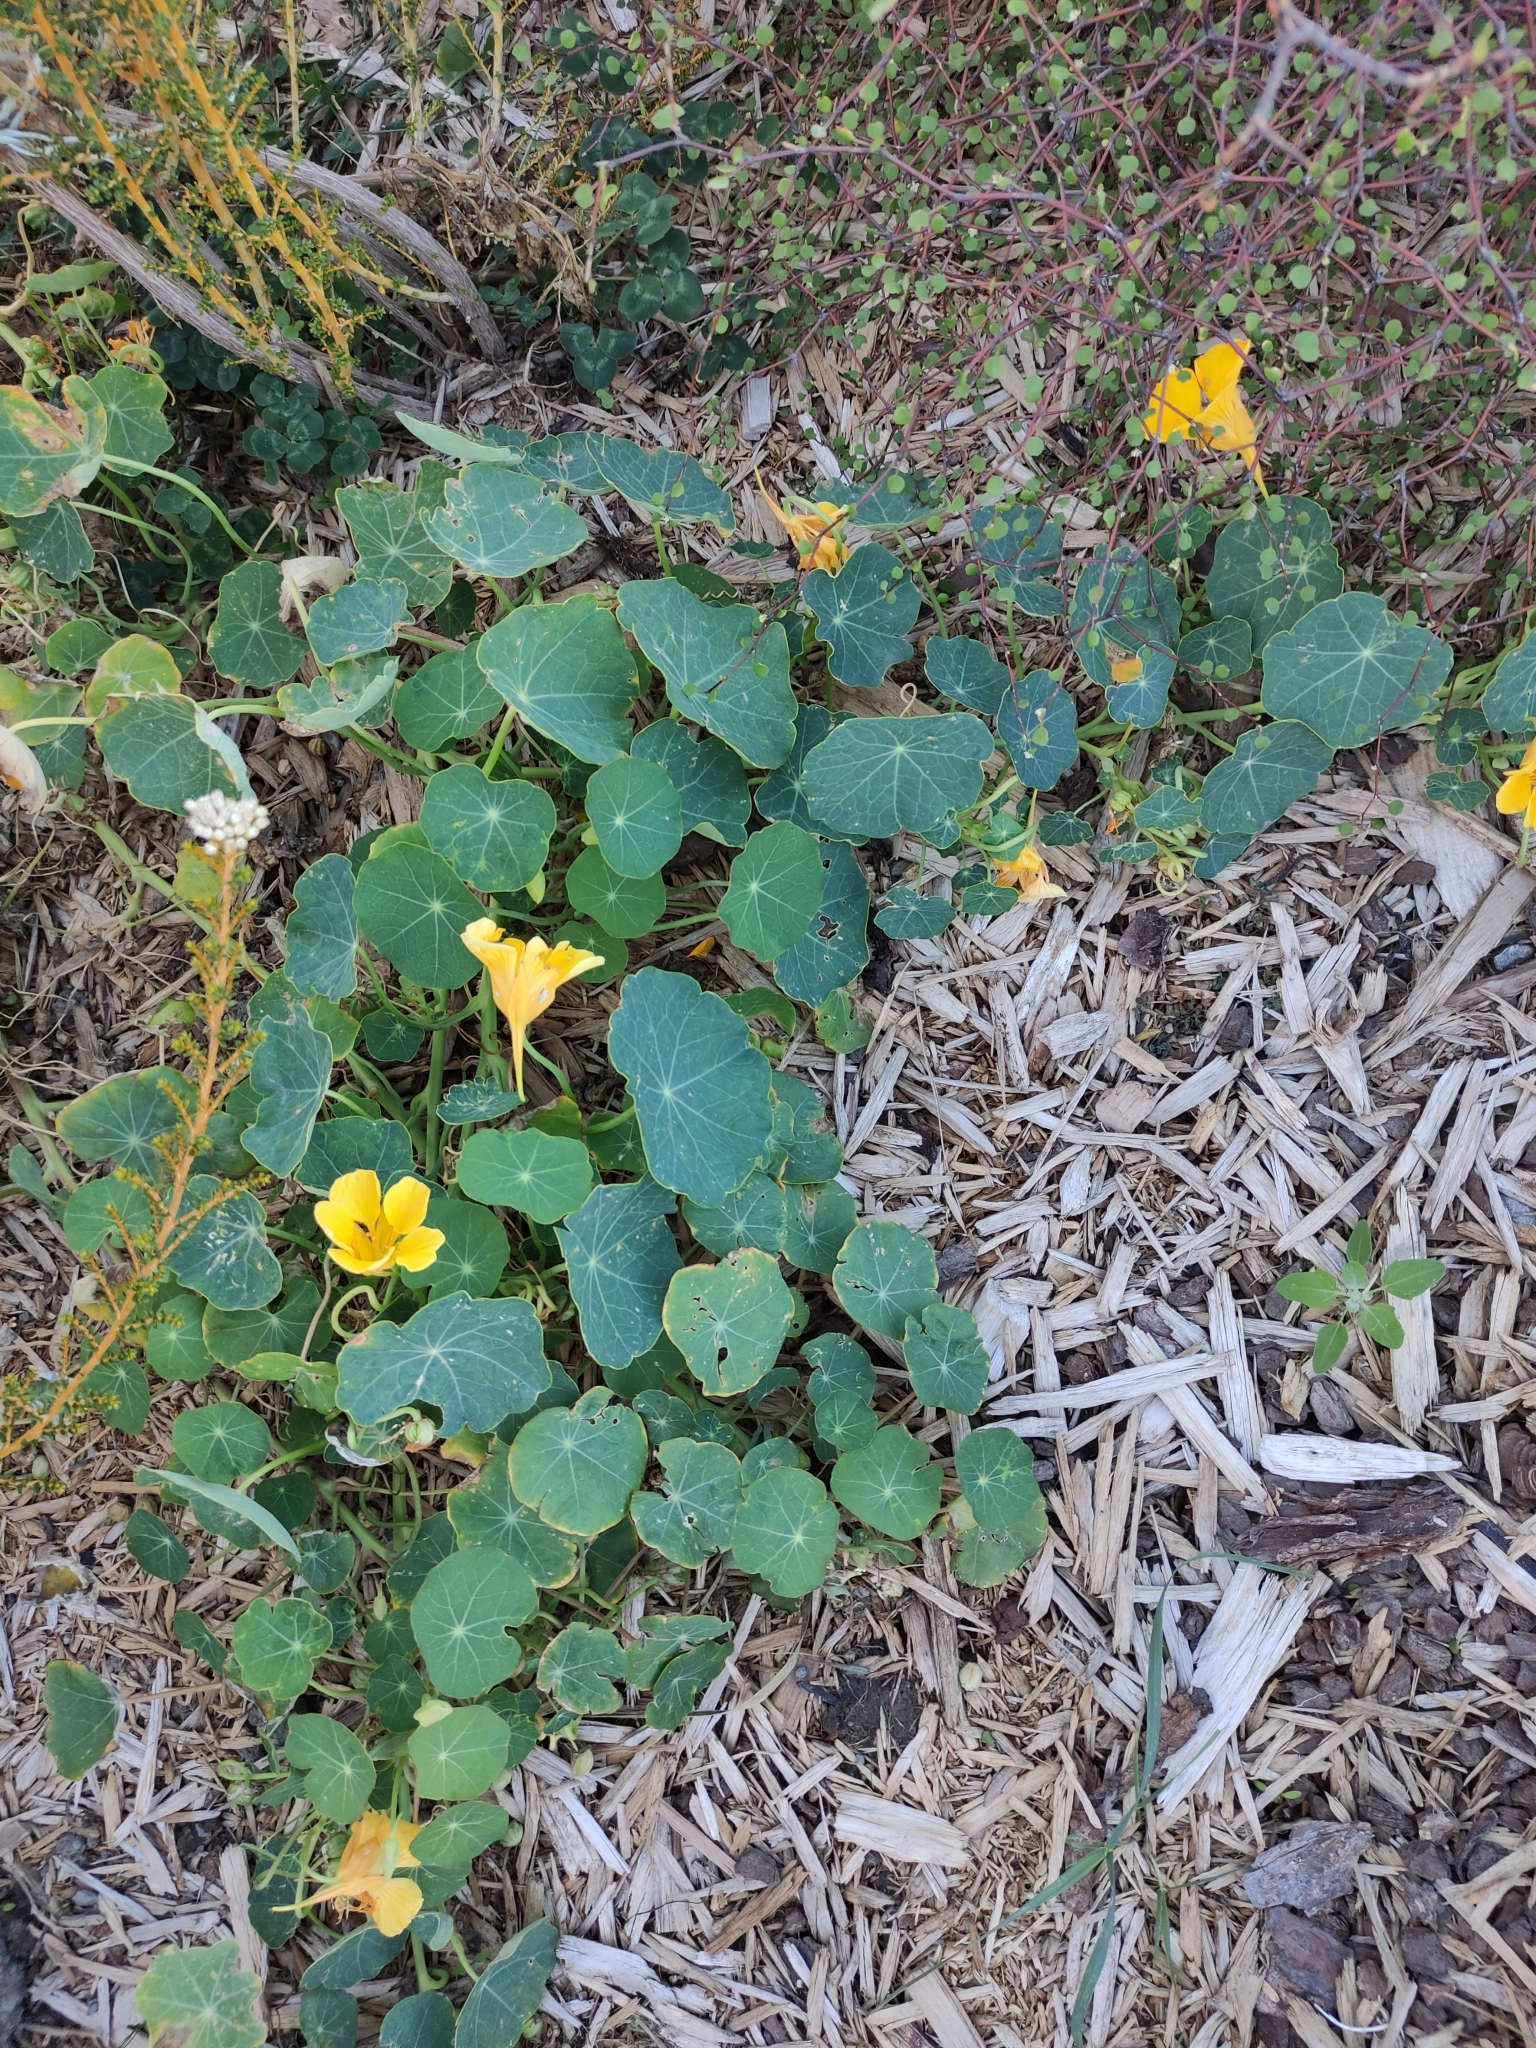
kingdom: Plantae
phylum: Tracheophyta
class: Magnoliopsida
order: Brassicales
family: Tropaeolaceae
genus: Tropaeolum
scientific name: Tropaeolum majus
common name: Nasturtium
